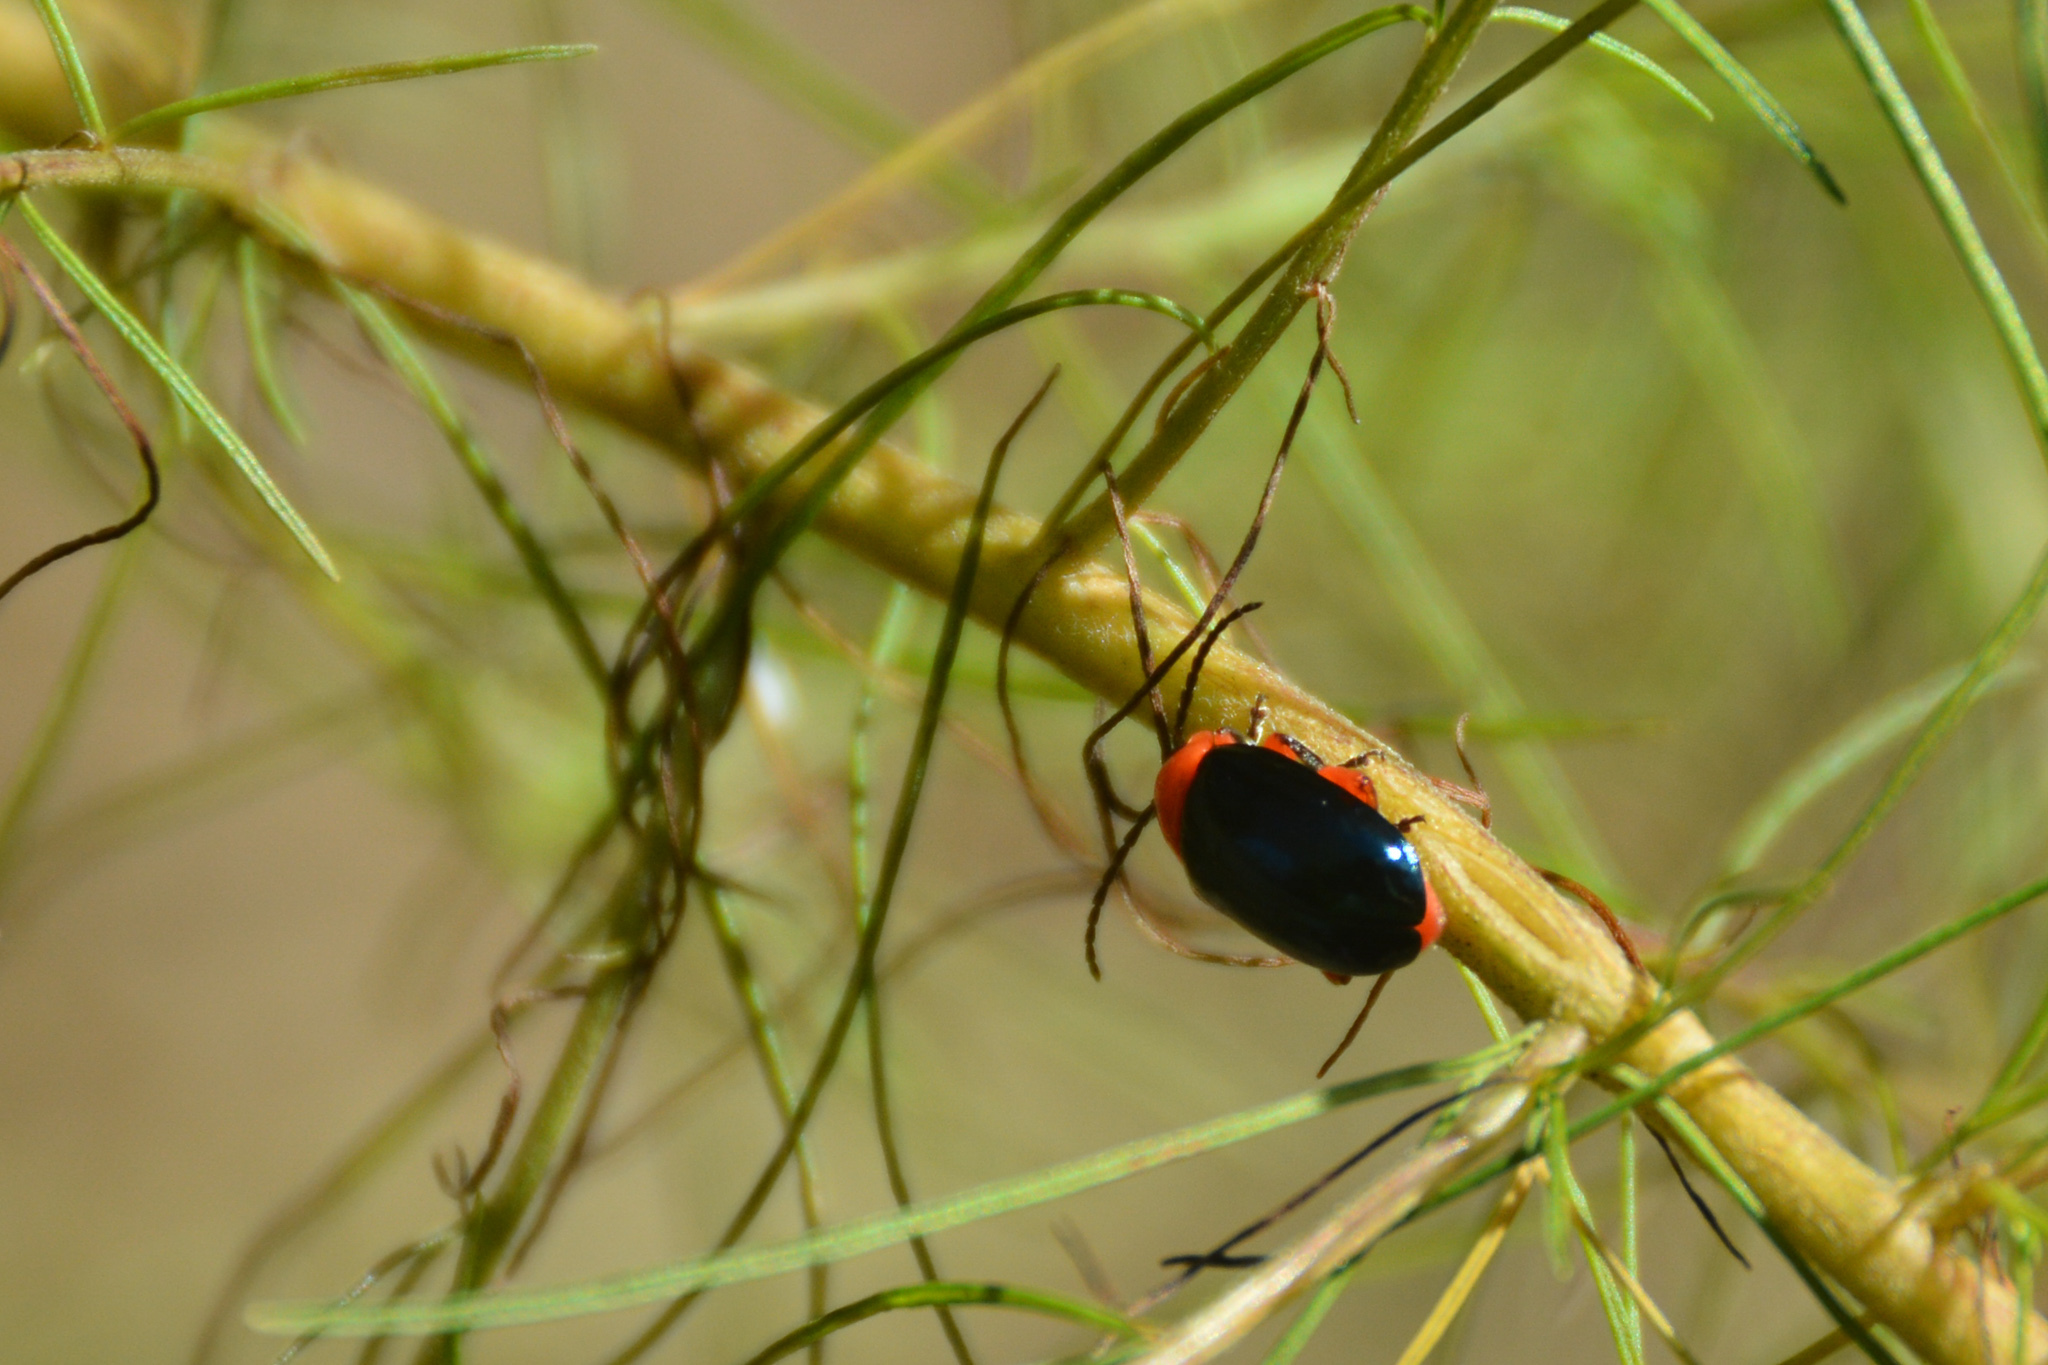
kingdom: Animalia
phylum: Arthropoda
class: Insecta
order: Coleoptera
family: Chrysomelidae
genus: Asphaera
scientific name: Asphaera lustrans
